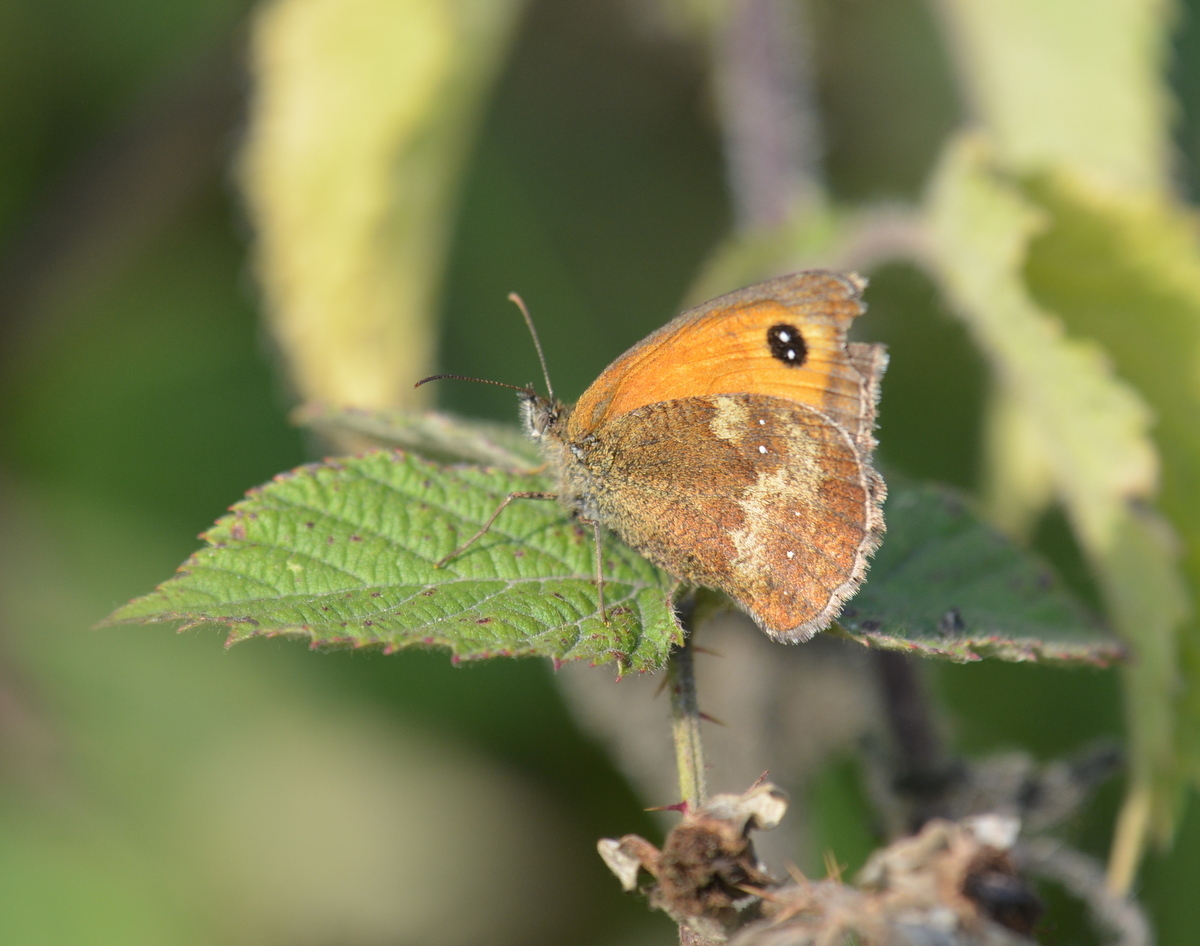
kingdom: Animalia
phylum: Arthropoda
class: Insecta
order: Lepidoptera
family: Nymphalidae
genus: Pyronia
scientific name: Pyronia tithonus
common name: Gatekeeper
